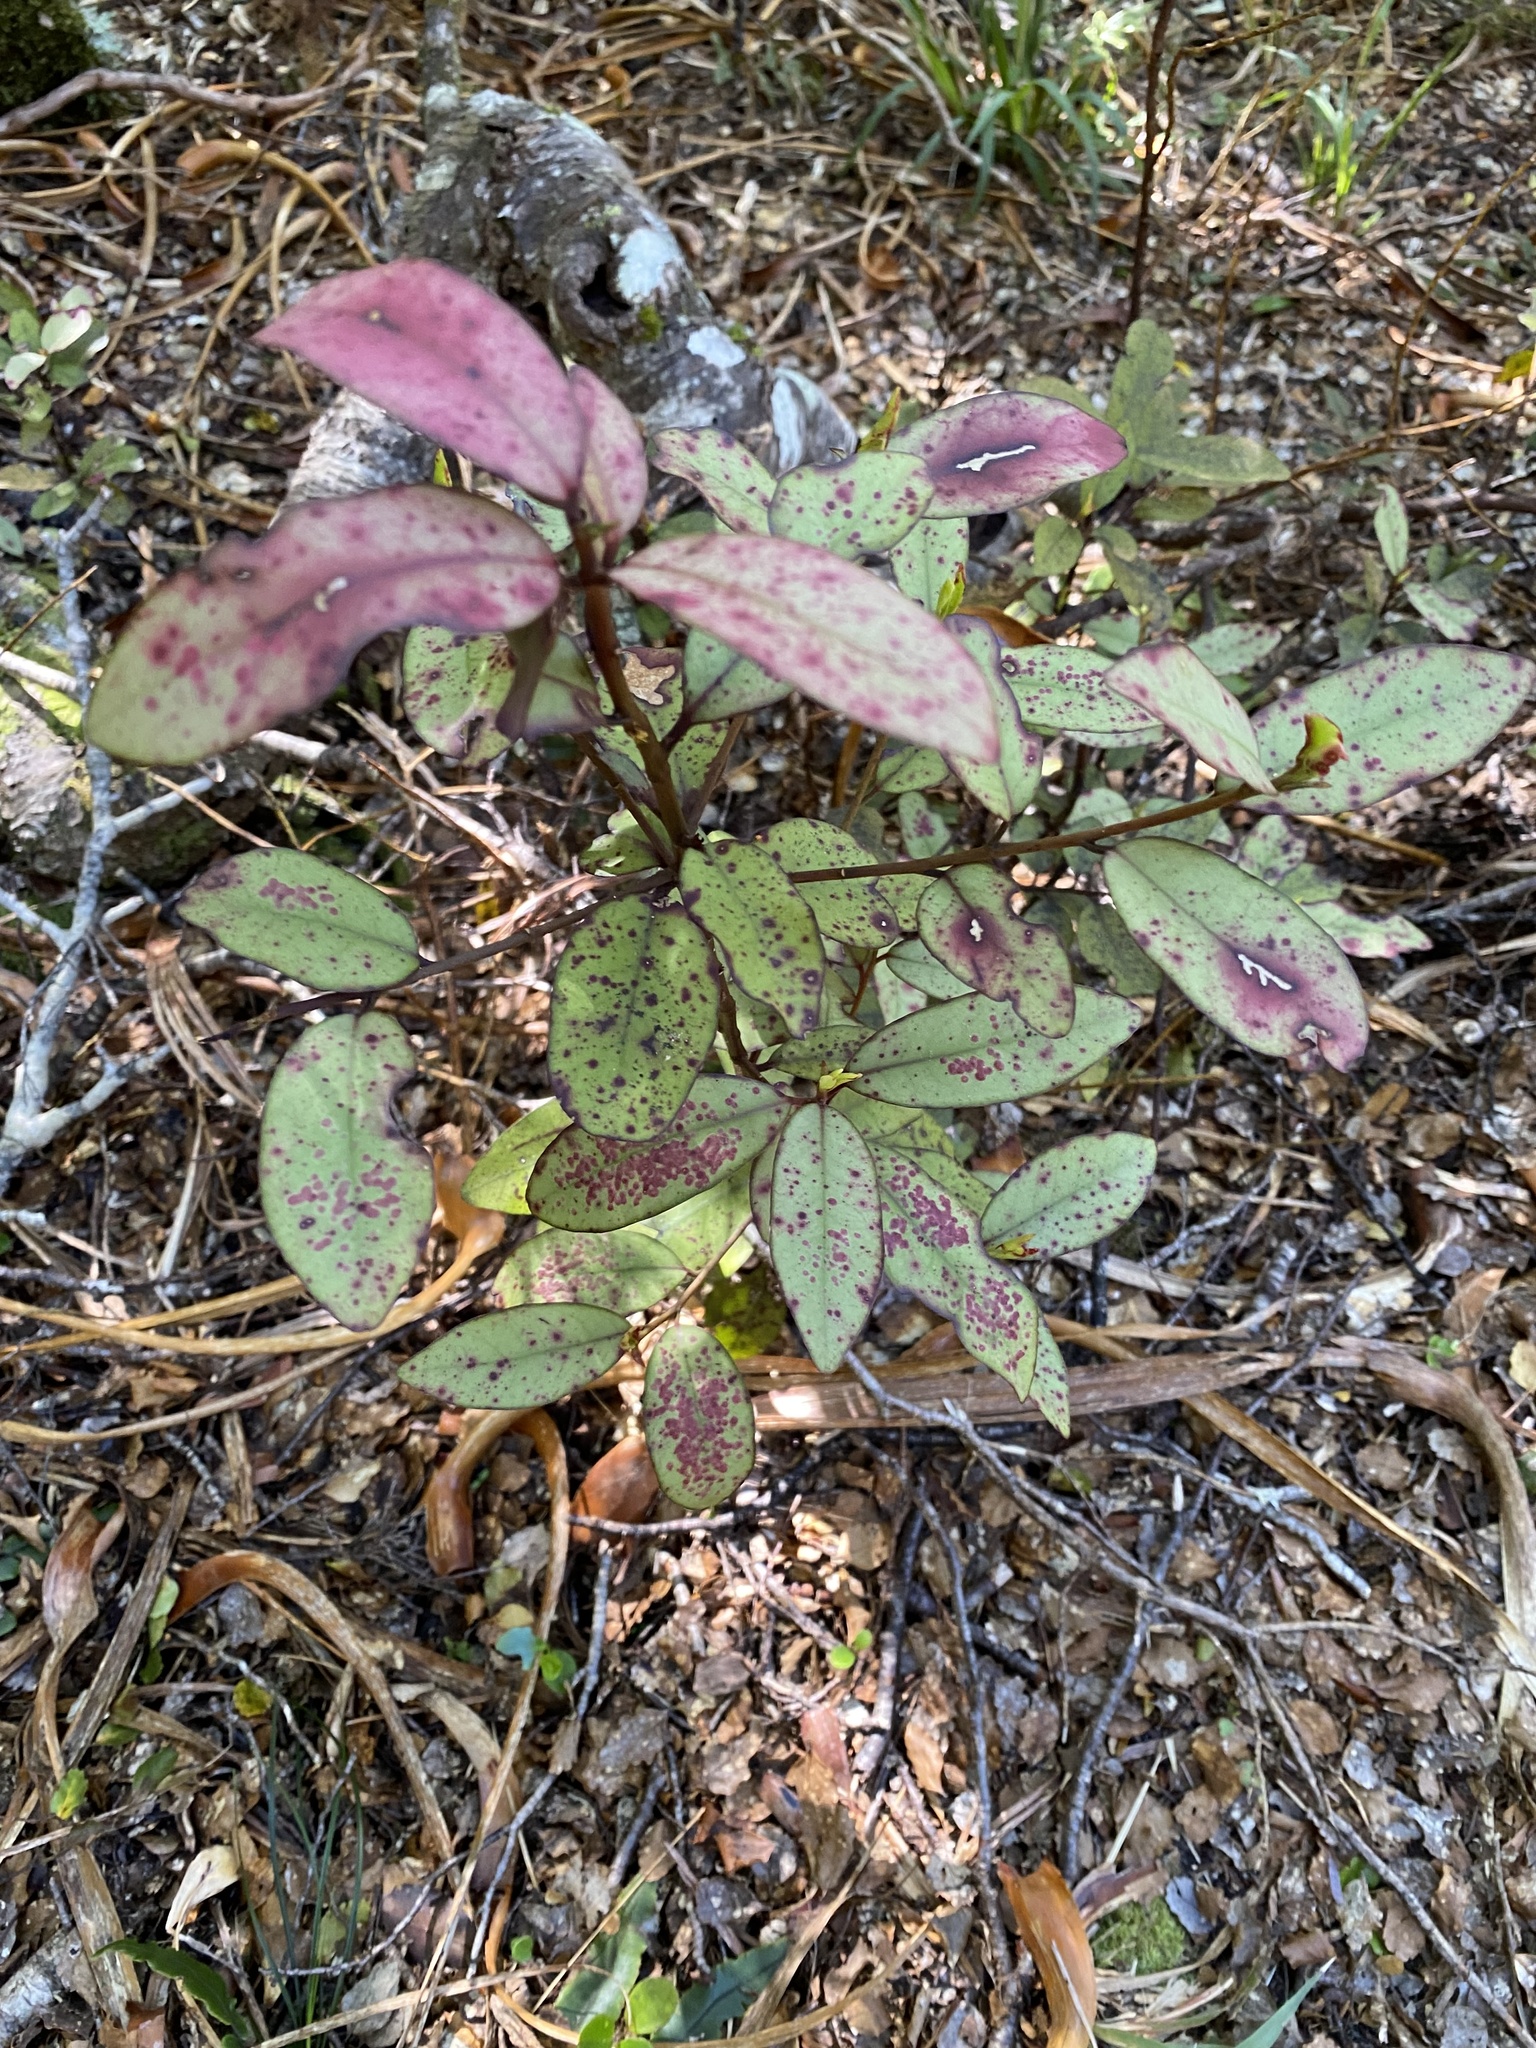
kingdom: Plantae
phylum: Tracheophyta
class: Magnoliopsida
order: Canellales
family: Winteraceae
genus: Pseudowintera
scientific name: Pseudowintera colorata
